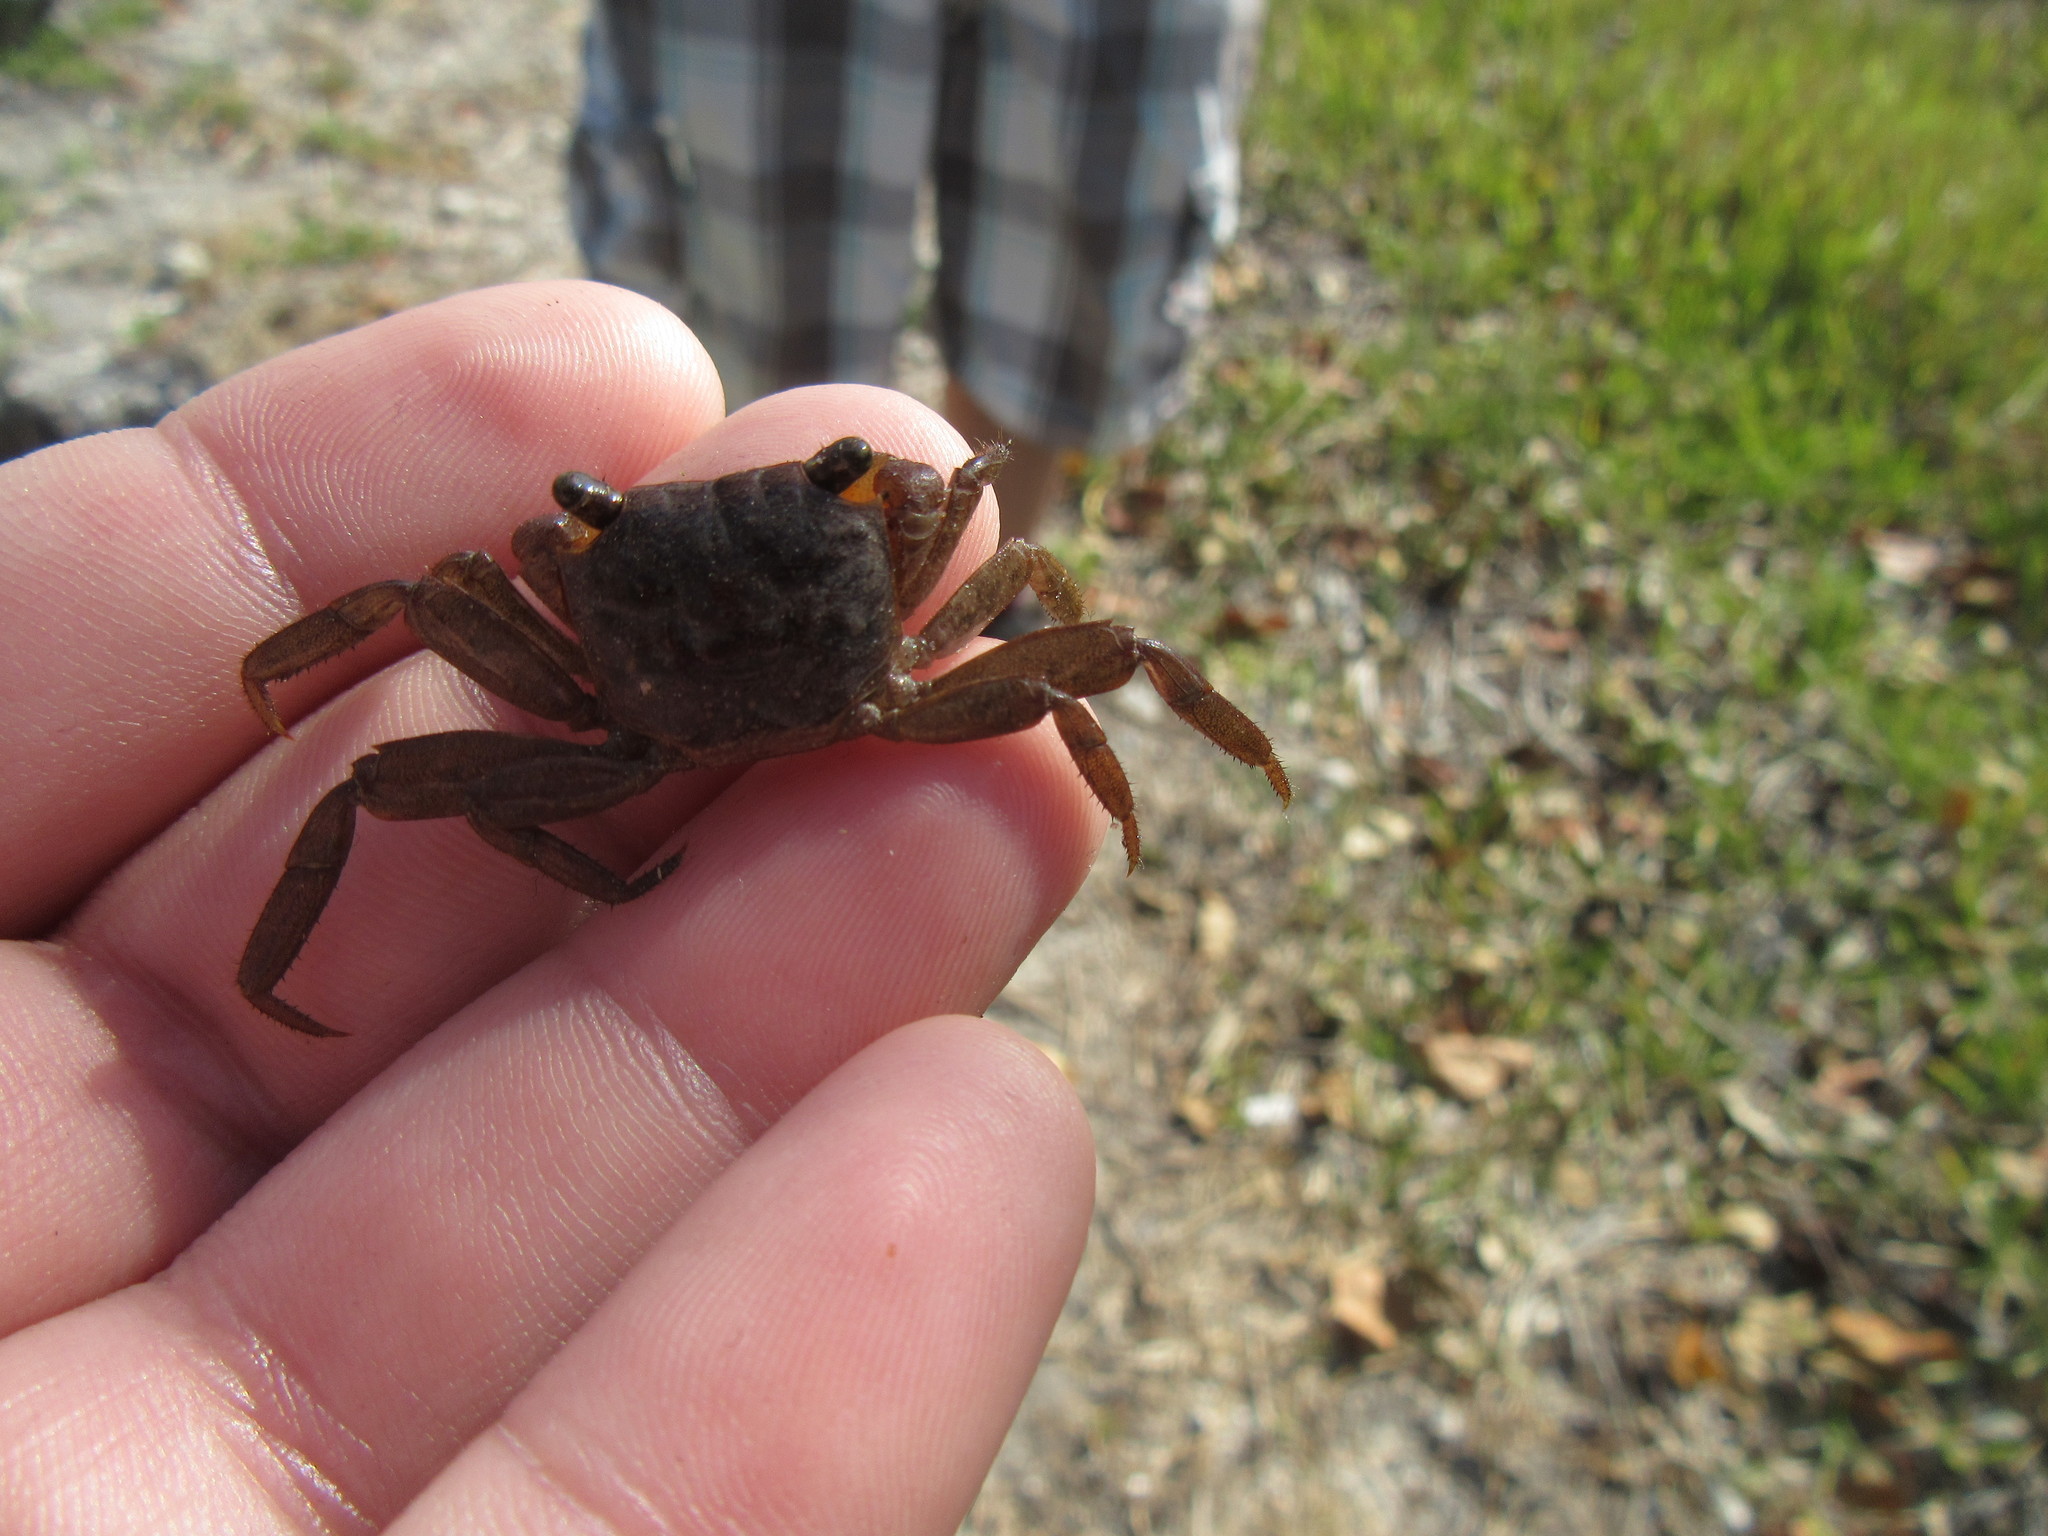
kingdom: Animalia
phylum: Arthropoda
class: Malacostraca
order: Decapoda
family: Sesarmidae
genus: Armases
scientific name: Armases cinereum
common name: Squareback marsh crab
